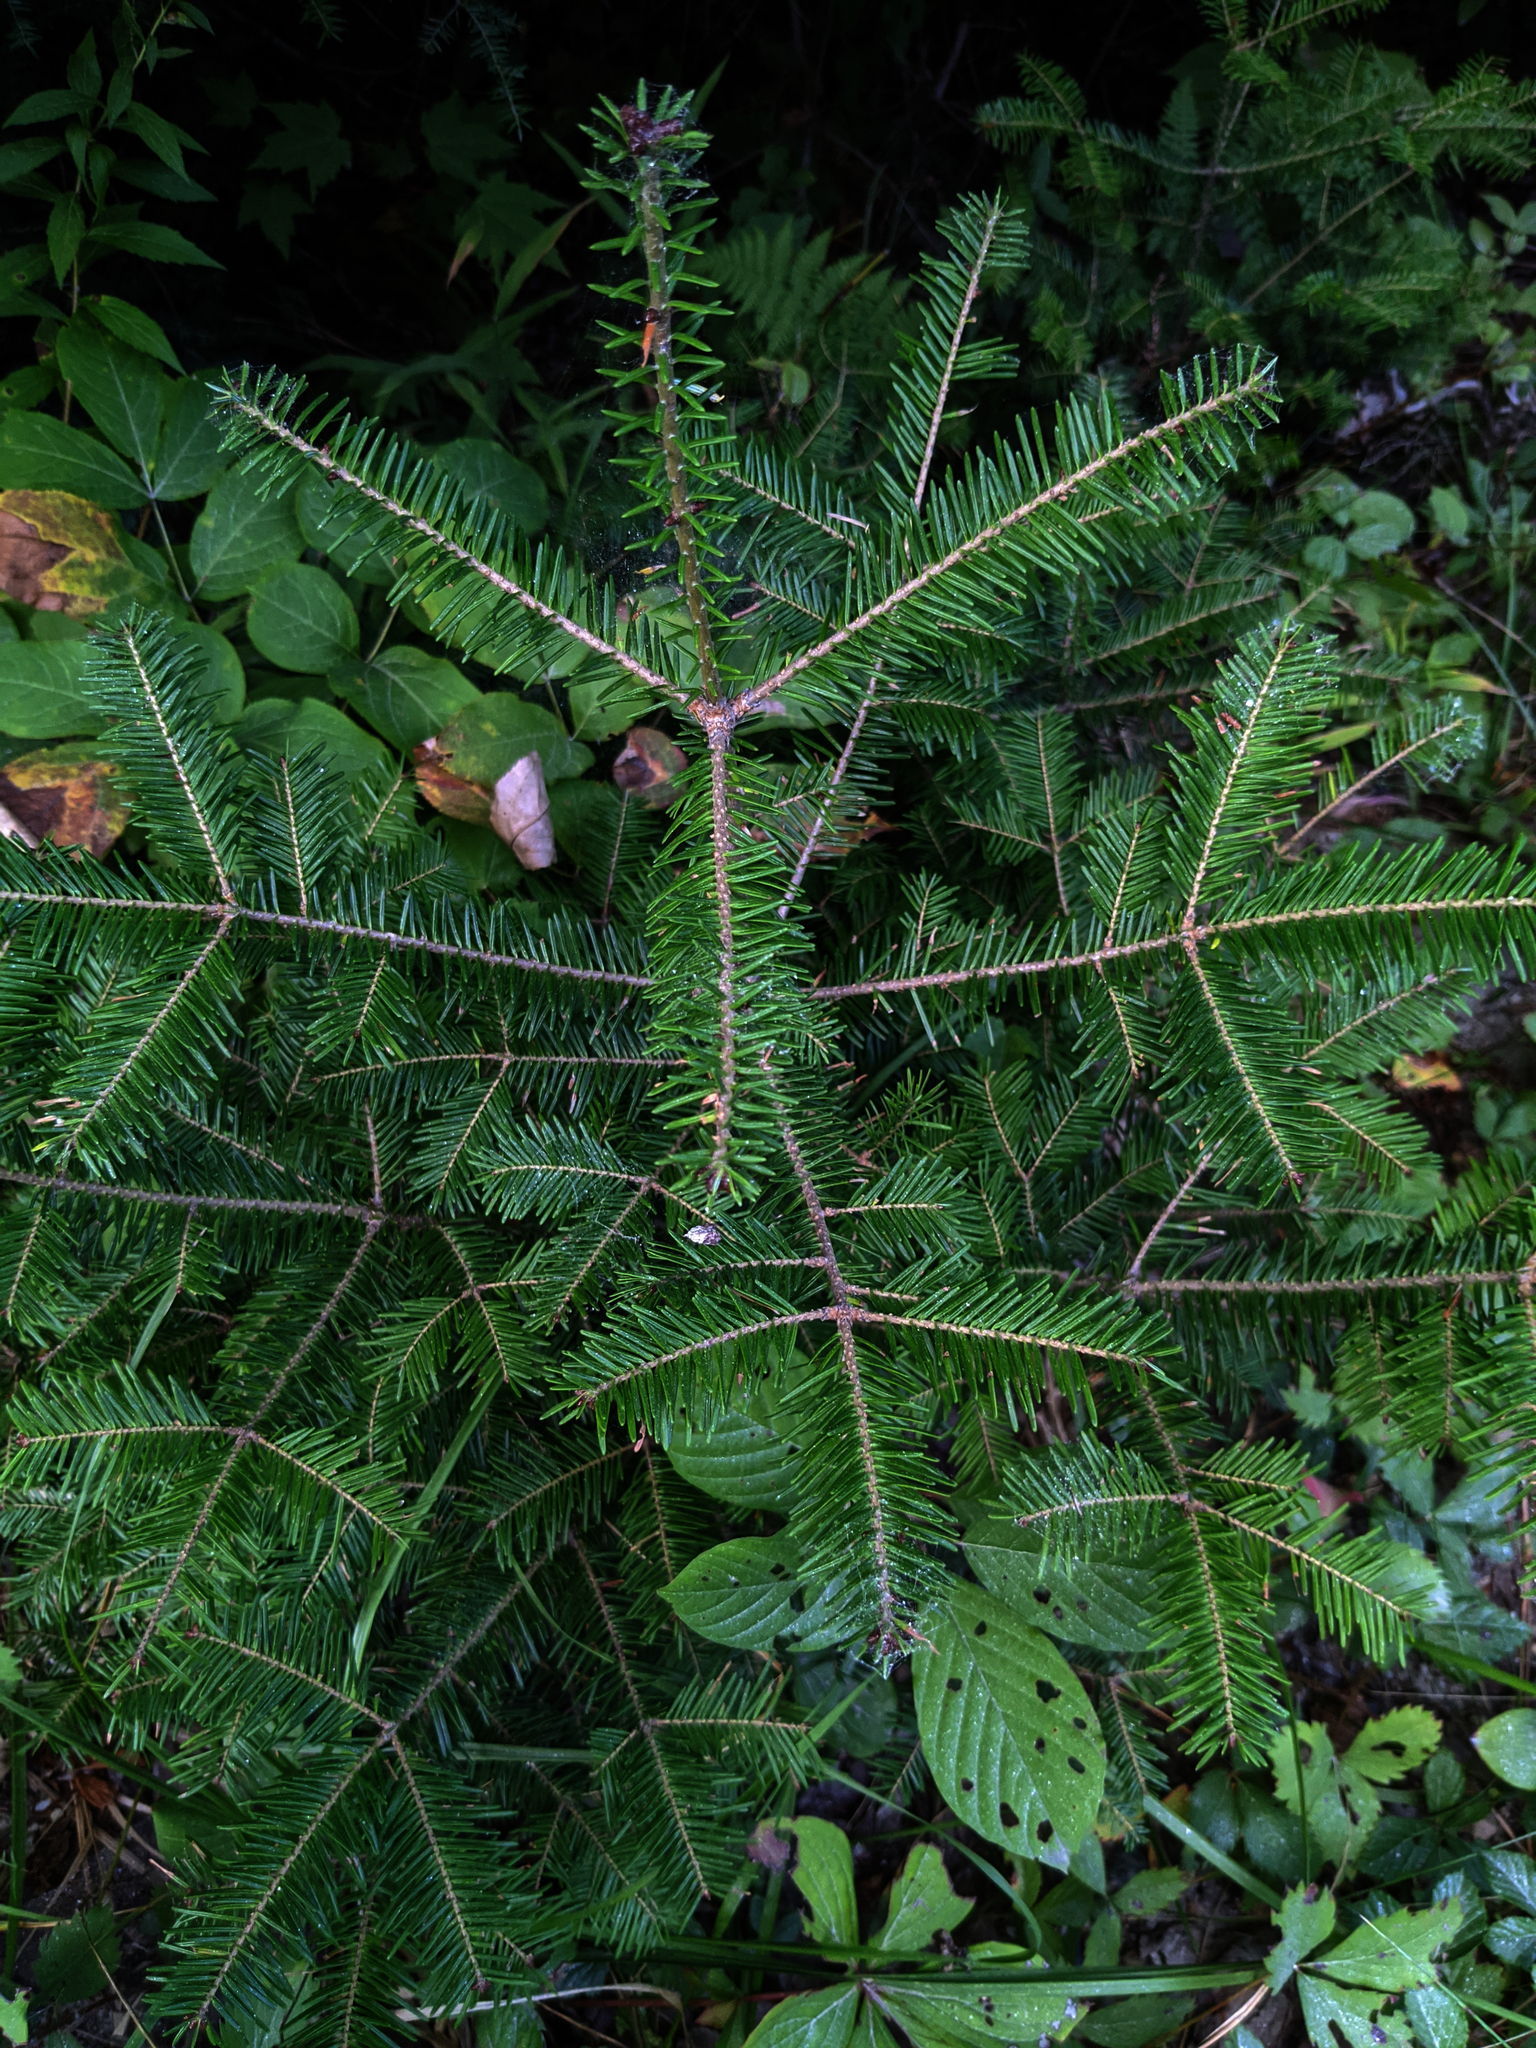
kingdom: Plantae
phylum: Tracheophyta
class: Pinopsida
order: Pinales
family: Pinaceae
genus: Abies
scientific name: Abies balsamea
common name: Balsam fir
